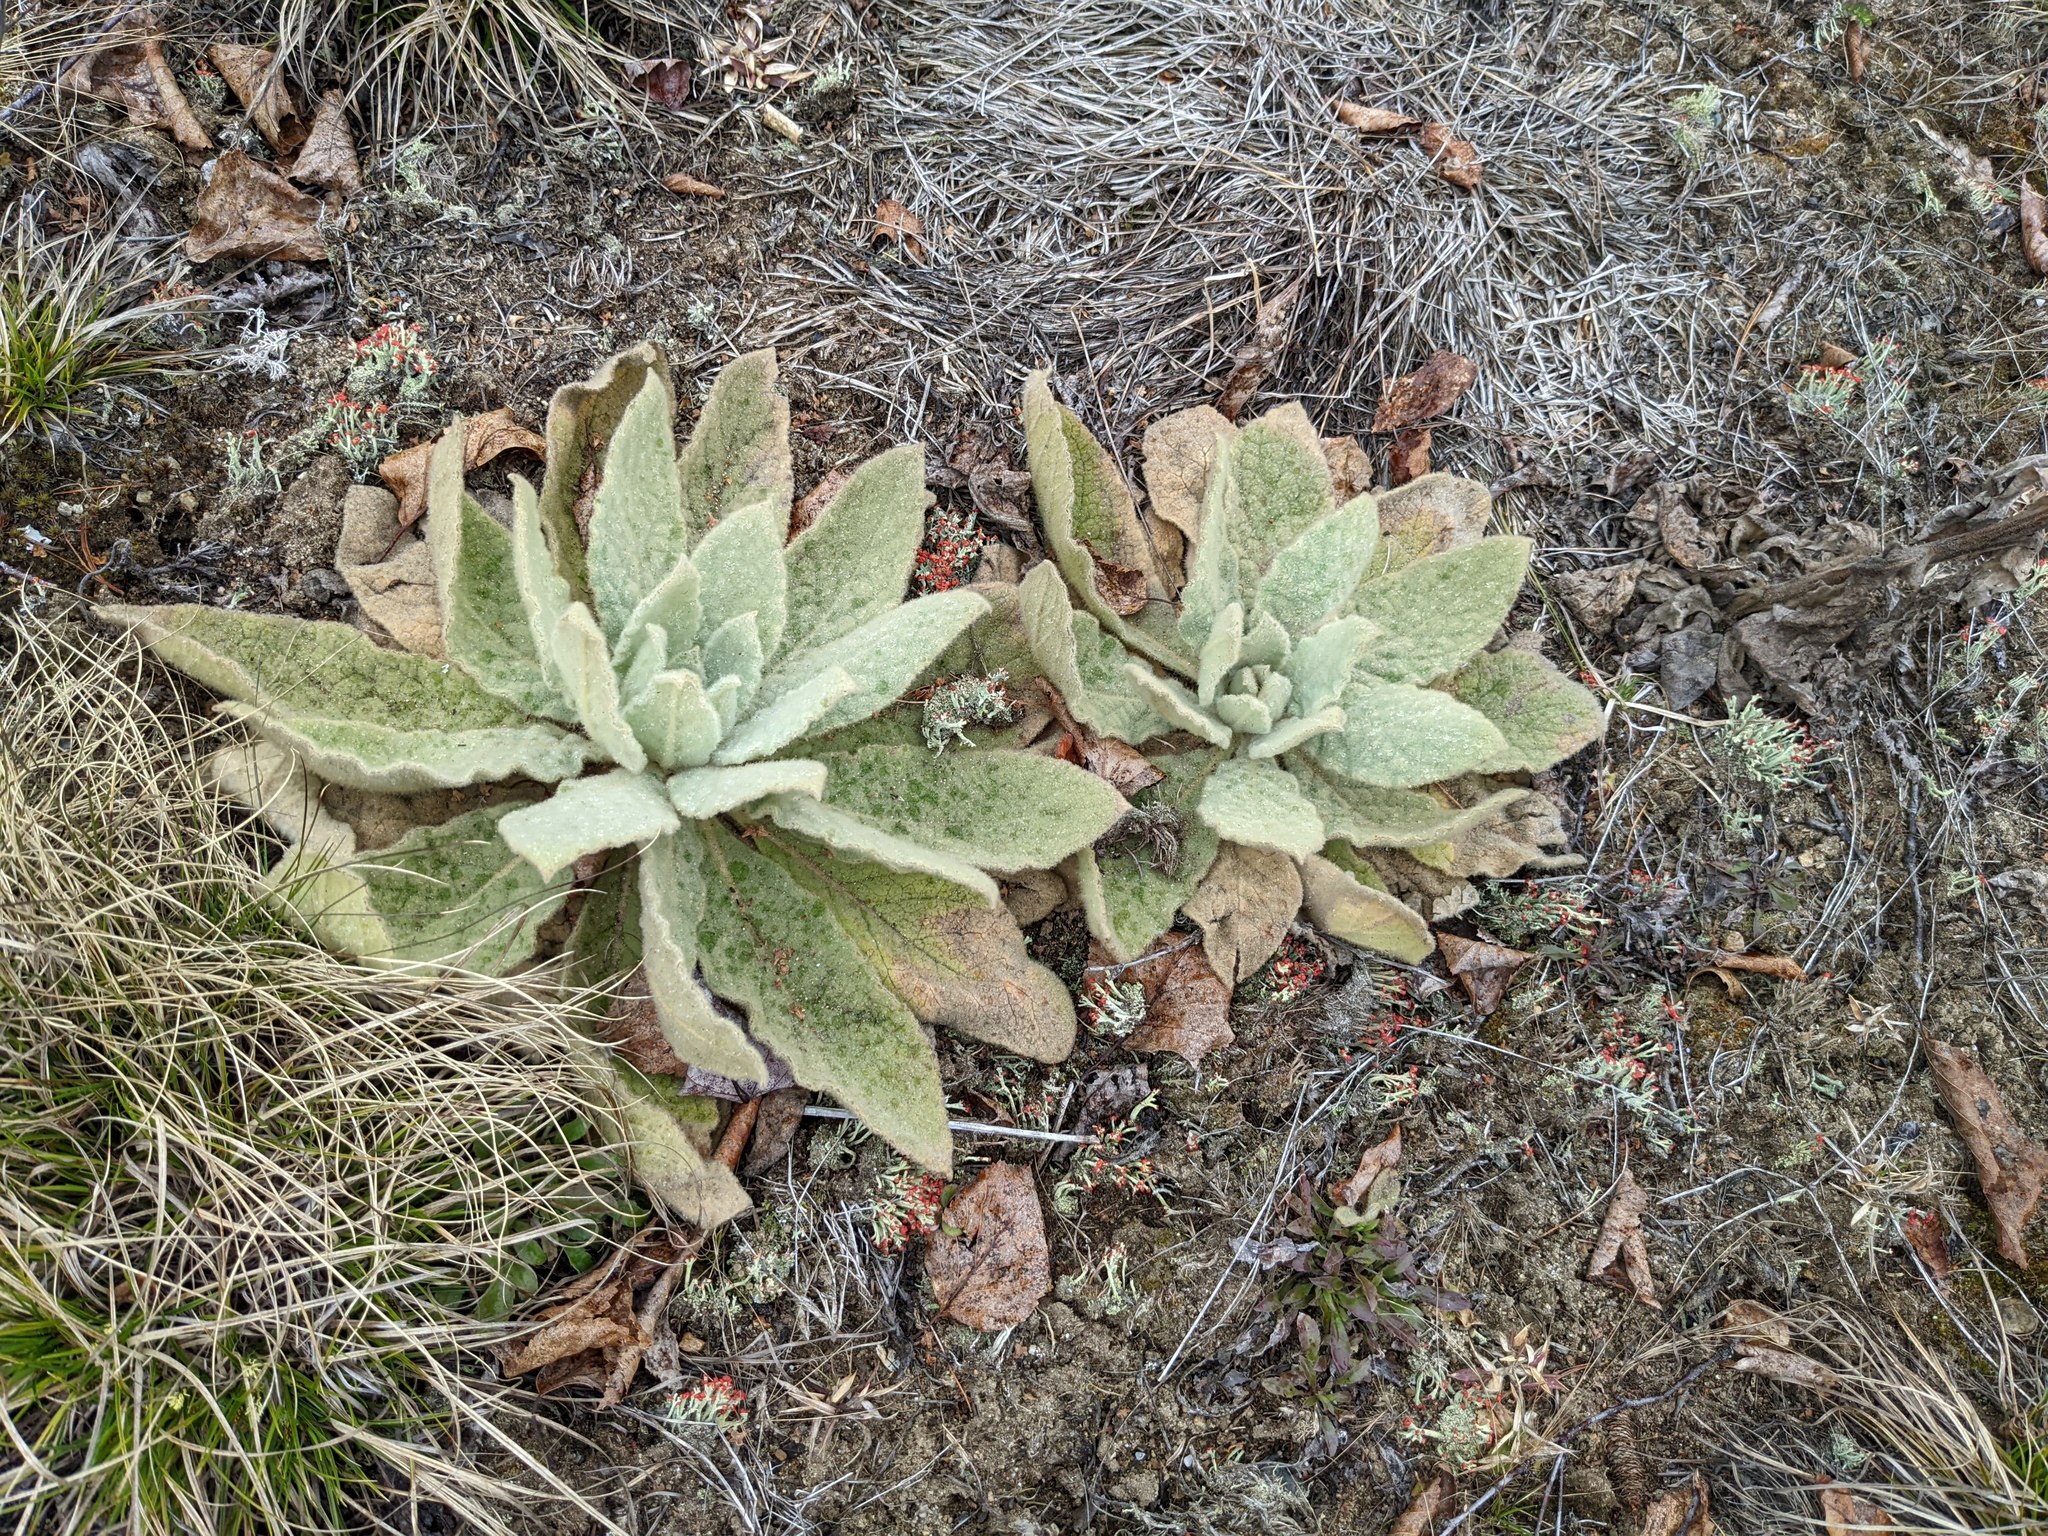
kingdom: Plantae
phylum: Tracheophyta
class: Magnoliopsida
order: Lamiales
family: Scrophulariaceae
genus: Verbascum
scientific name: Verbascum thapsus
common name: Common mullein
